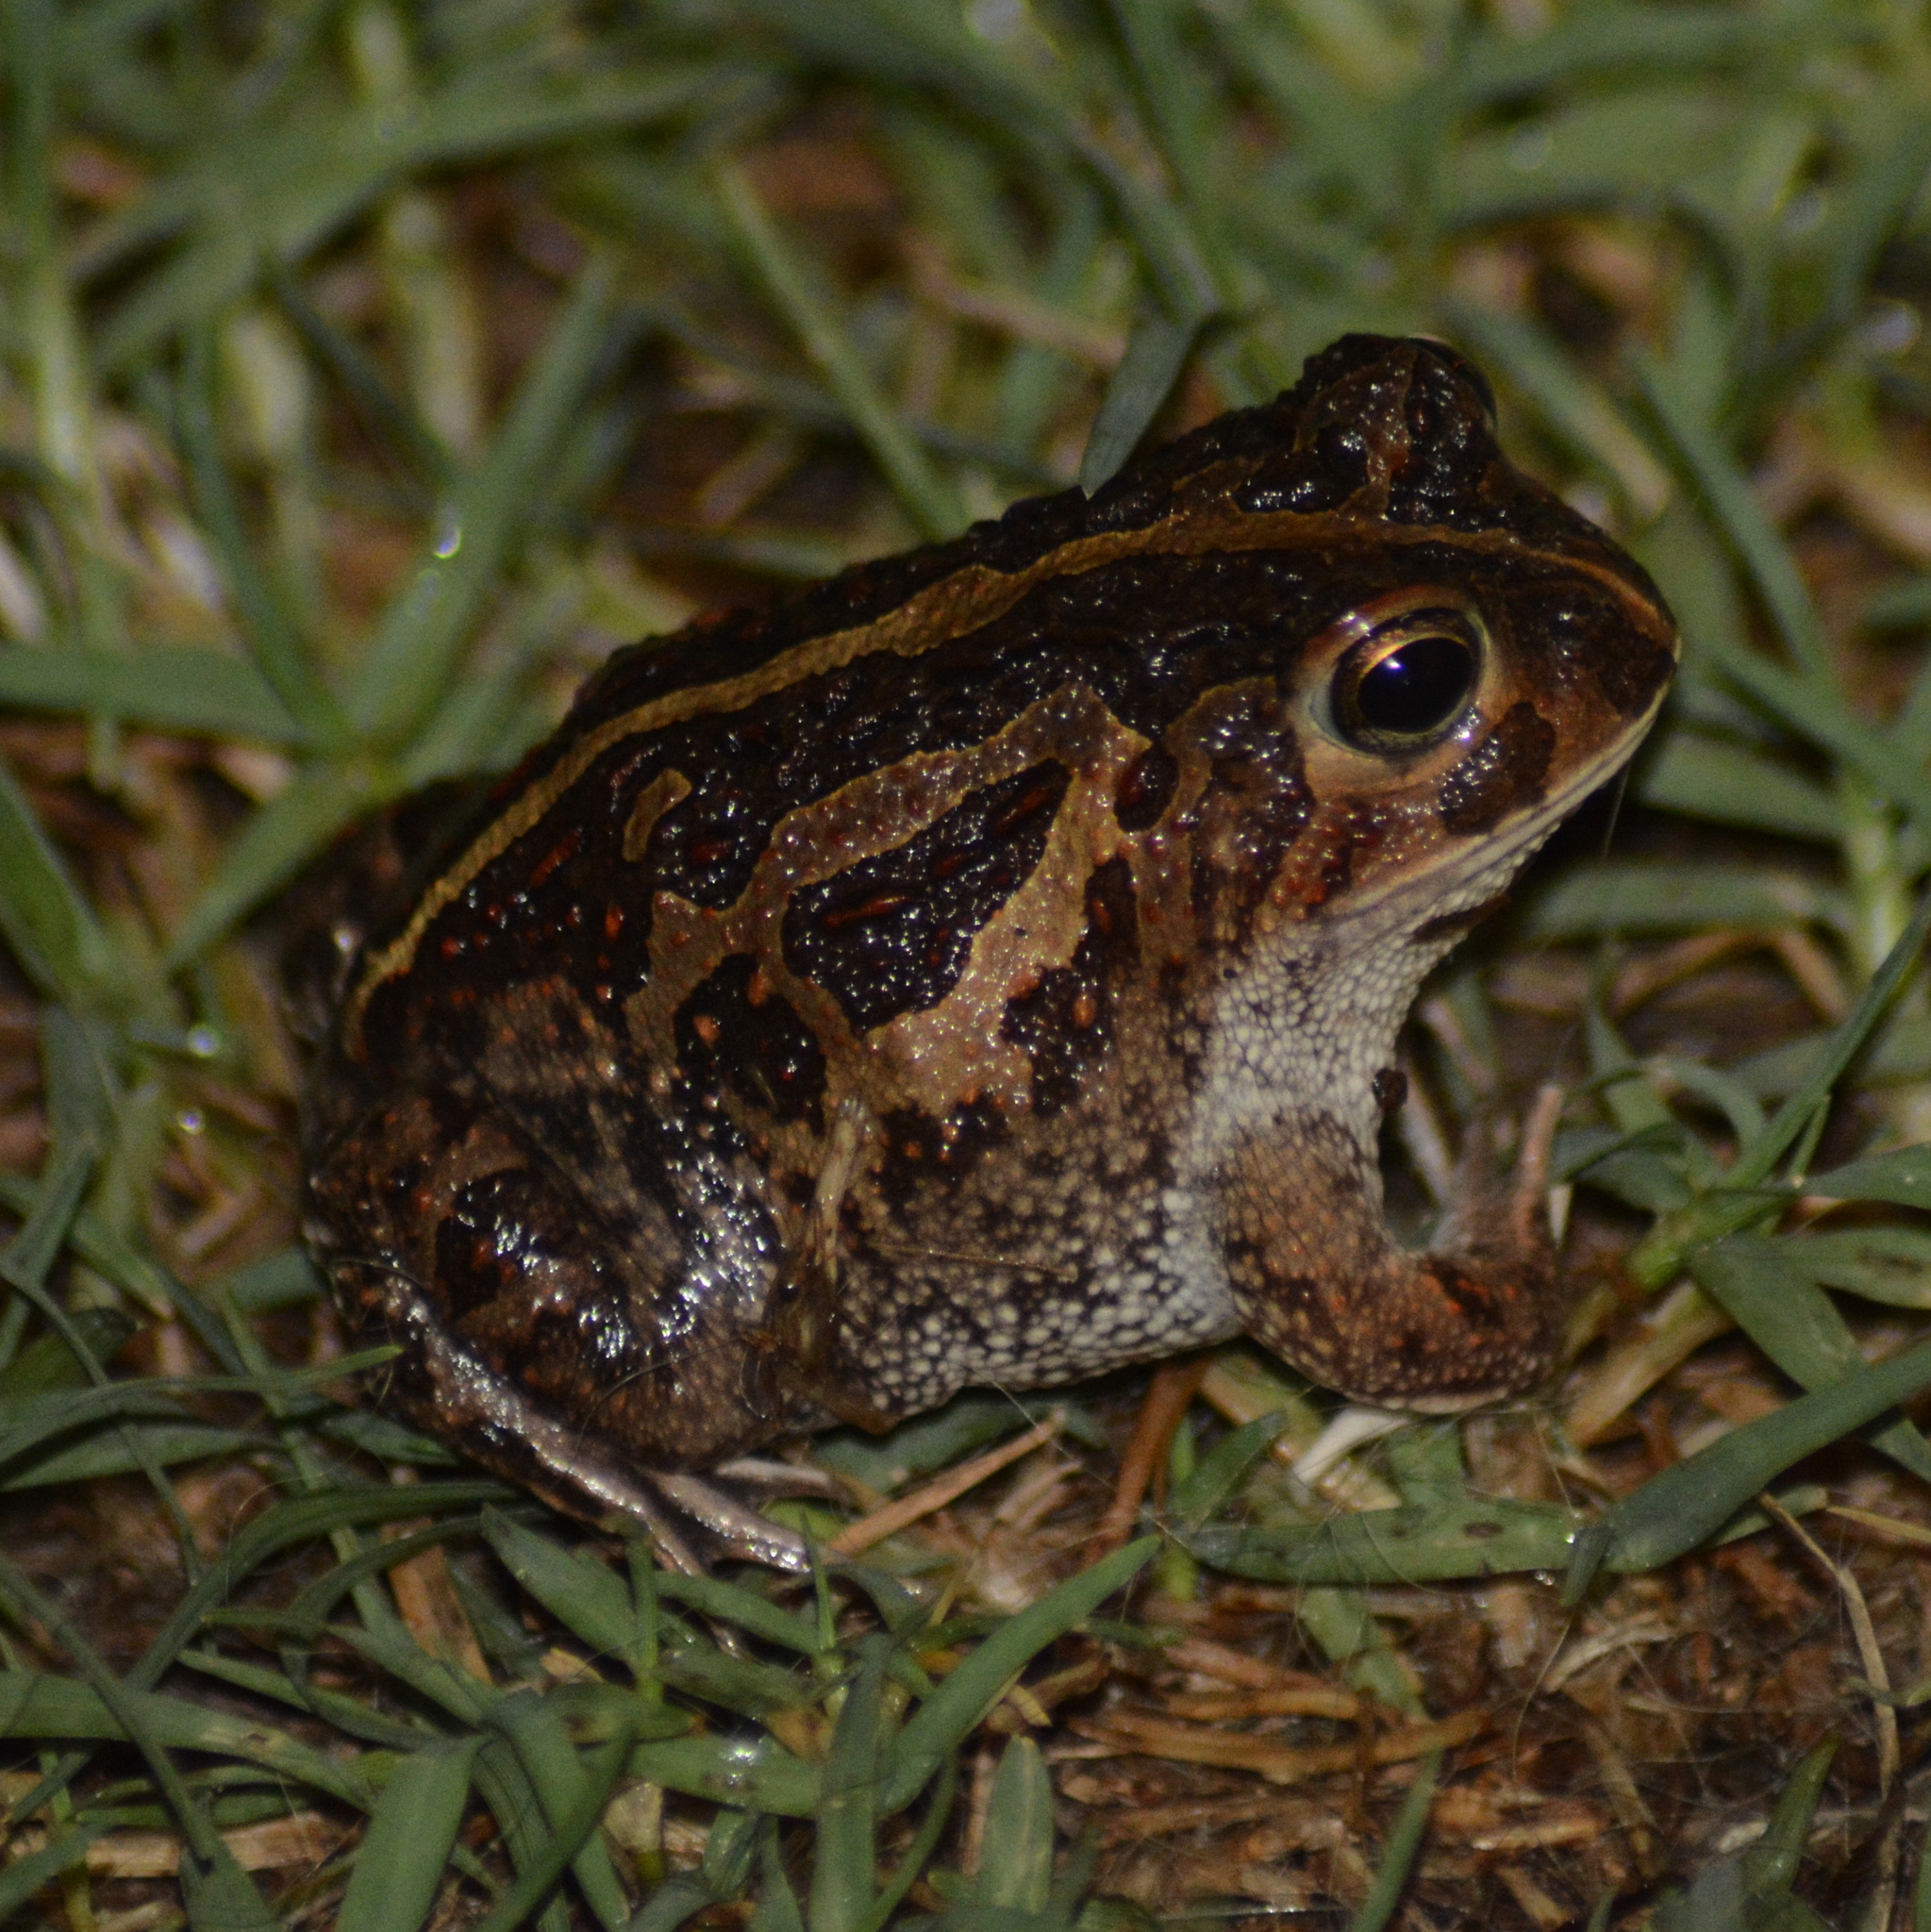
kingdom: Animalia
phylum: Chordata
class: Amphibia
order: Anura
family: Odontophrynidae
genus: Odontophrynus
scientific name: Odontophrynus
